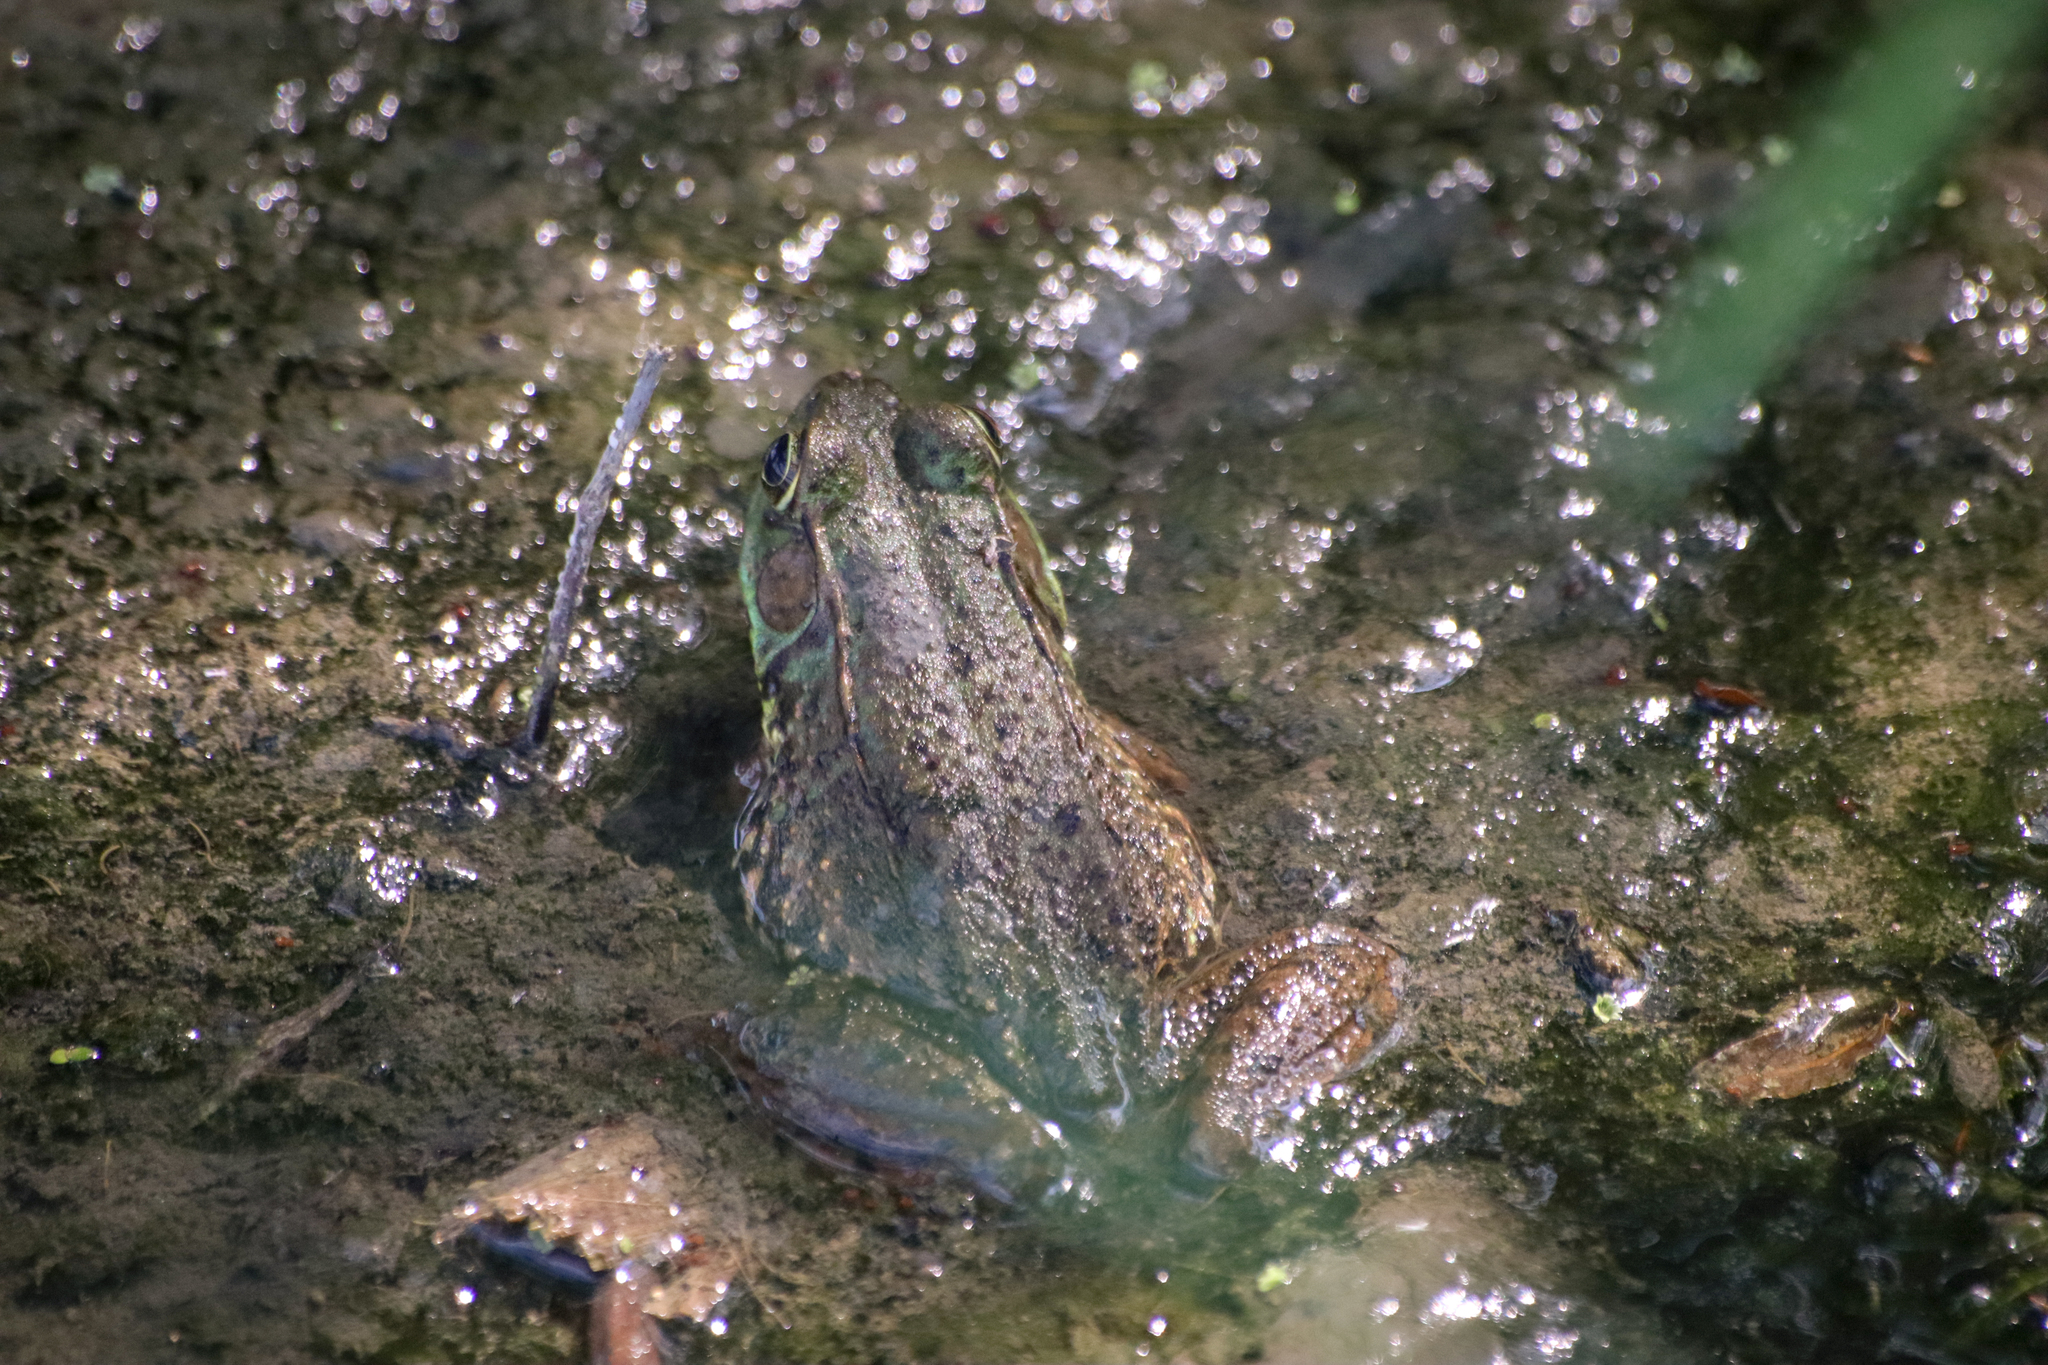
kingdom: Animalia
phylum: Chordata
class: Amphibia
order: Anura
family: Ranidae
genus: Lithobates
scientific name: Lithobates clamitans
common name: Green frog
